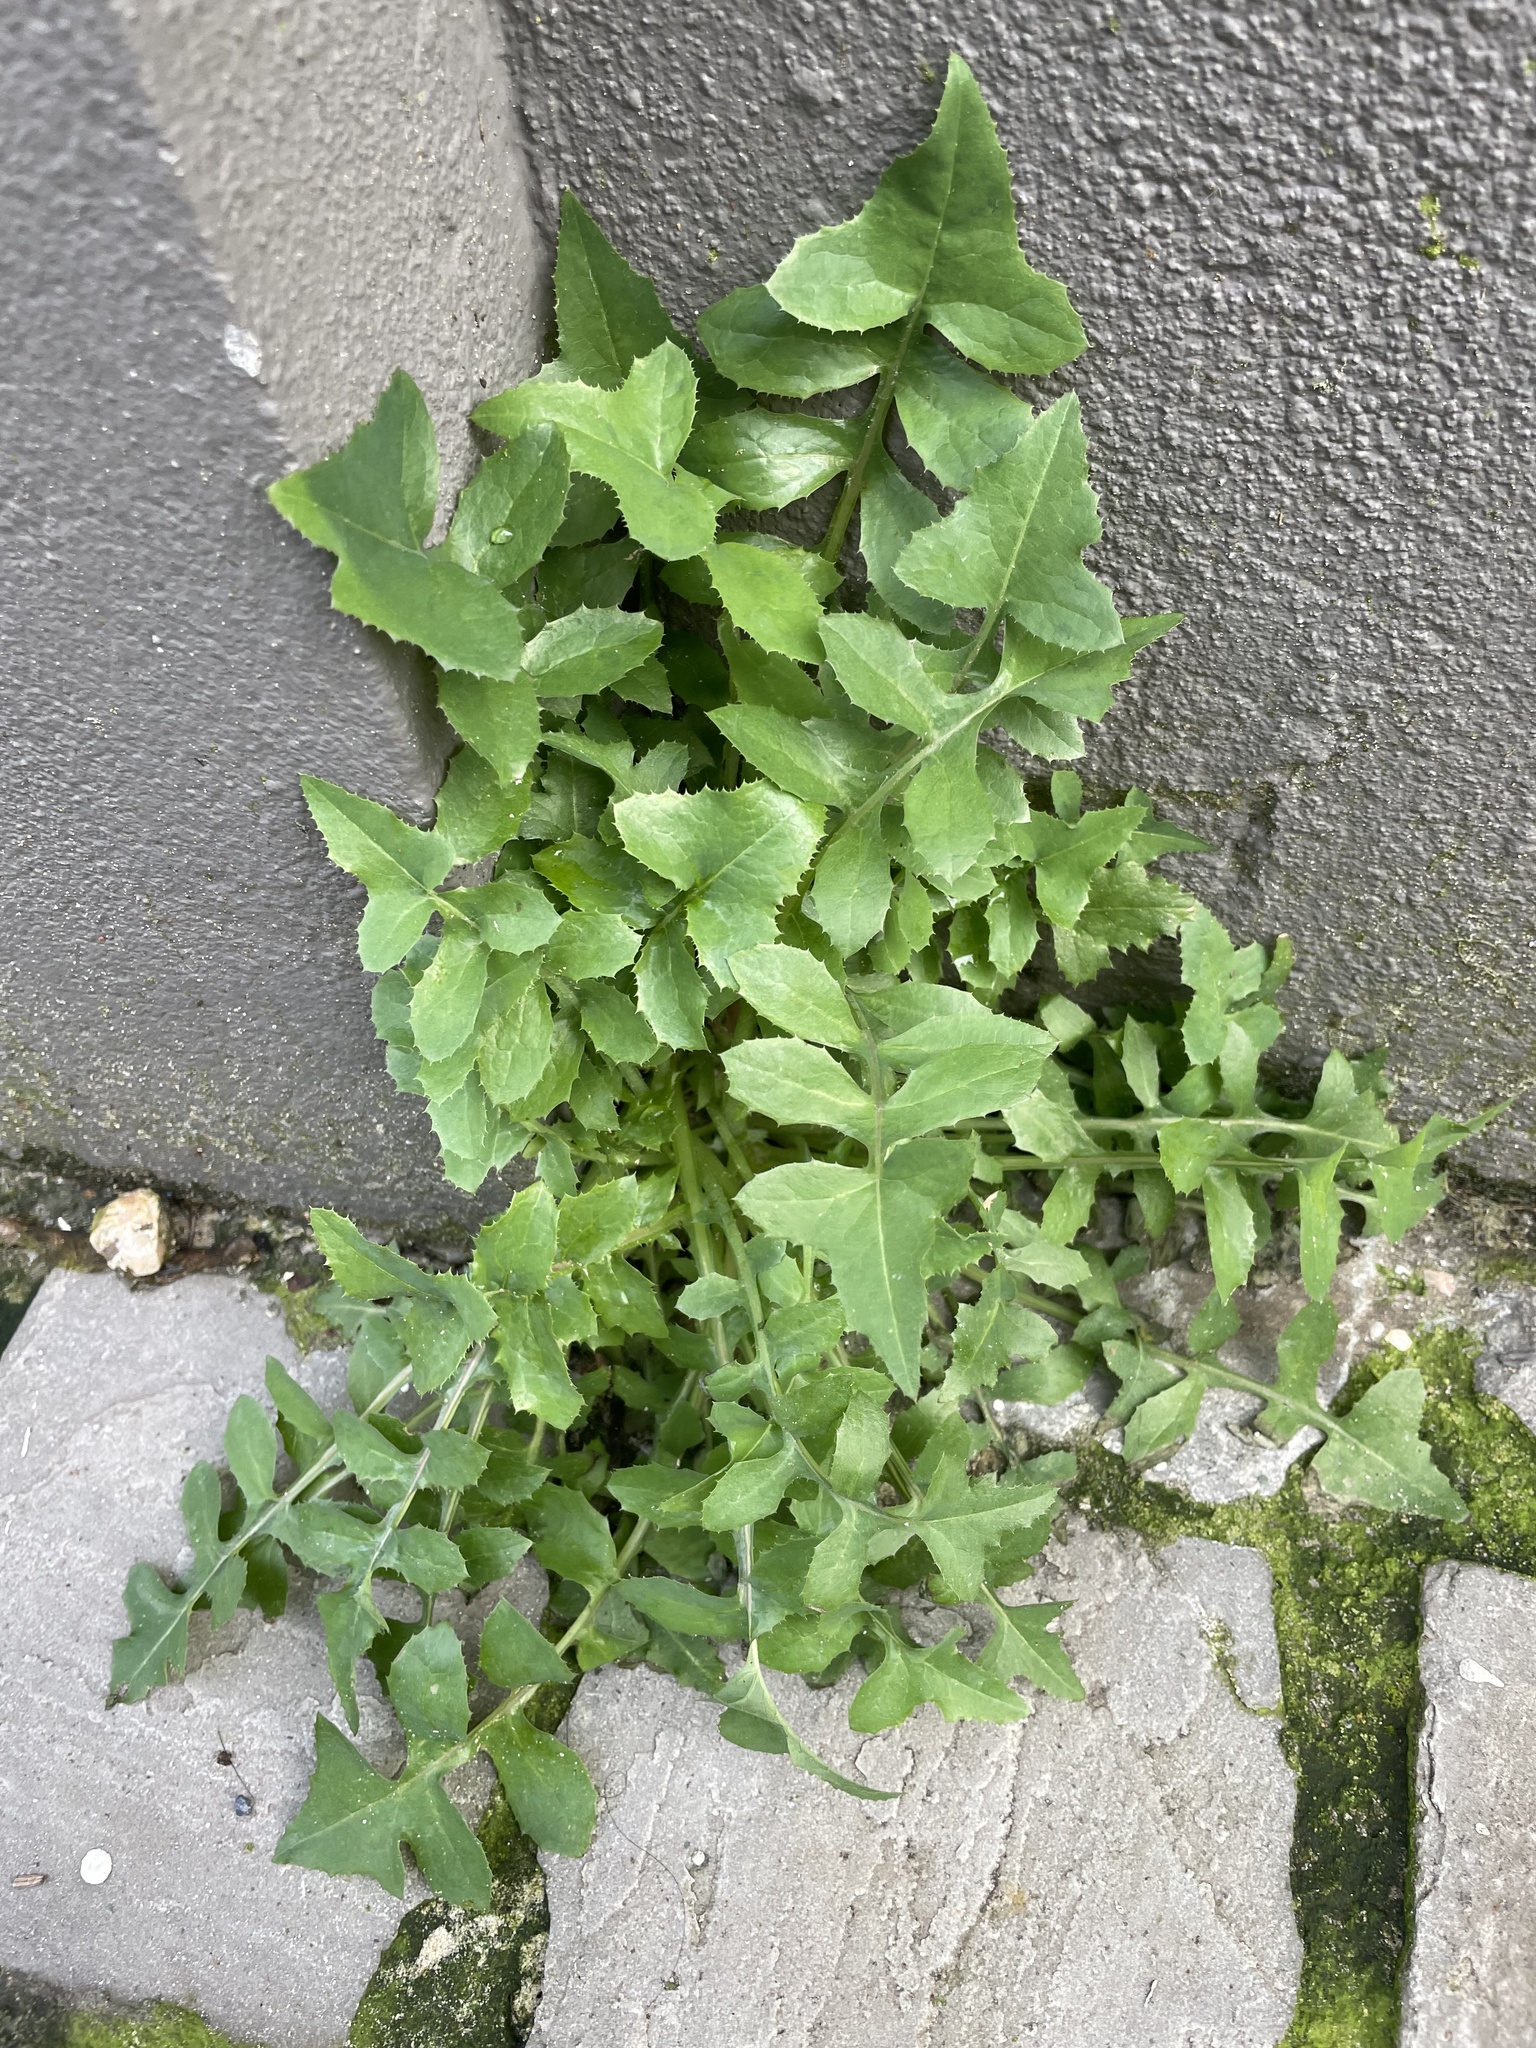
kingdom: Plantae
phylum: Tracheophyta
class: Magnoliopsida
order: Asterales
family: Asteraceae
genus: Sonchus
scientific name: Sonchus oleraceus
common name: Common sowthistle
